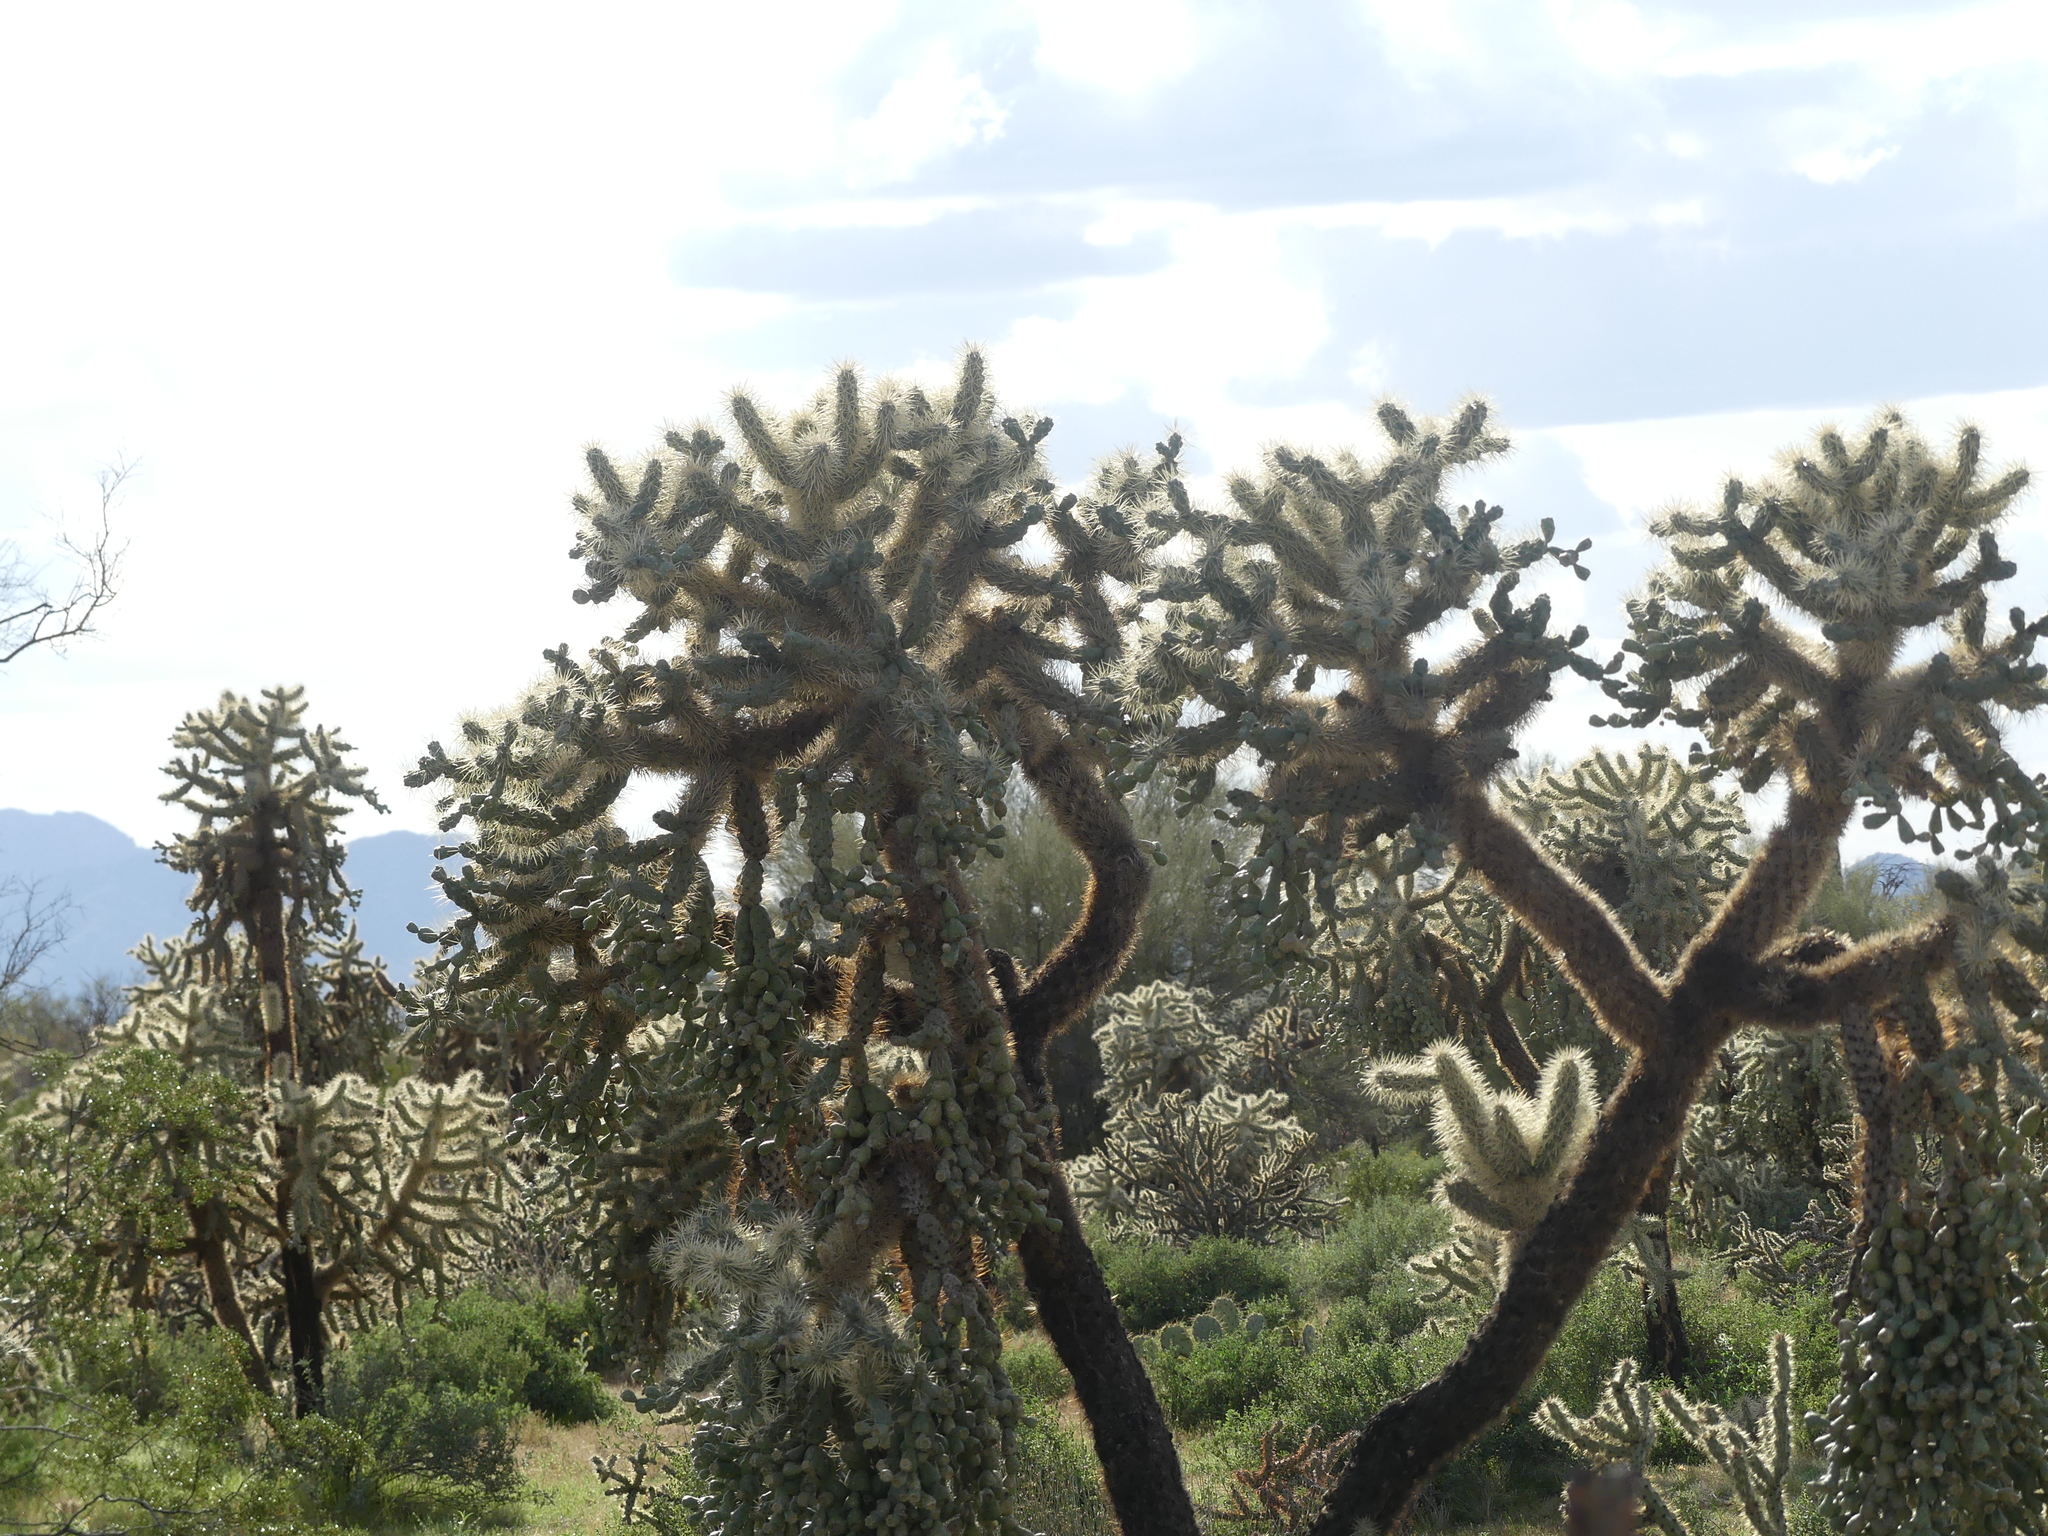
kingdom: Plantae
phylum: Tracheophyta
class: Magnoliopsida
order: Caryophyllales
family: Cactaceae
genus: Cylindropuntia
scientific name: Cylindropuntia fulgida
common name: Jumping cholla
